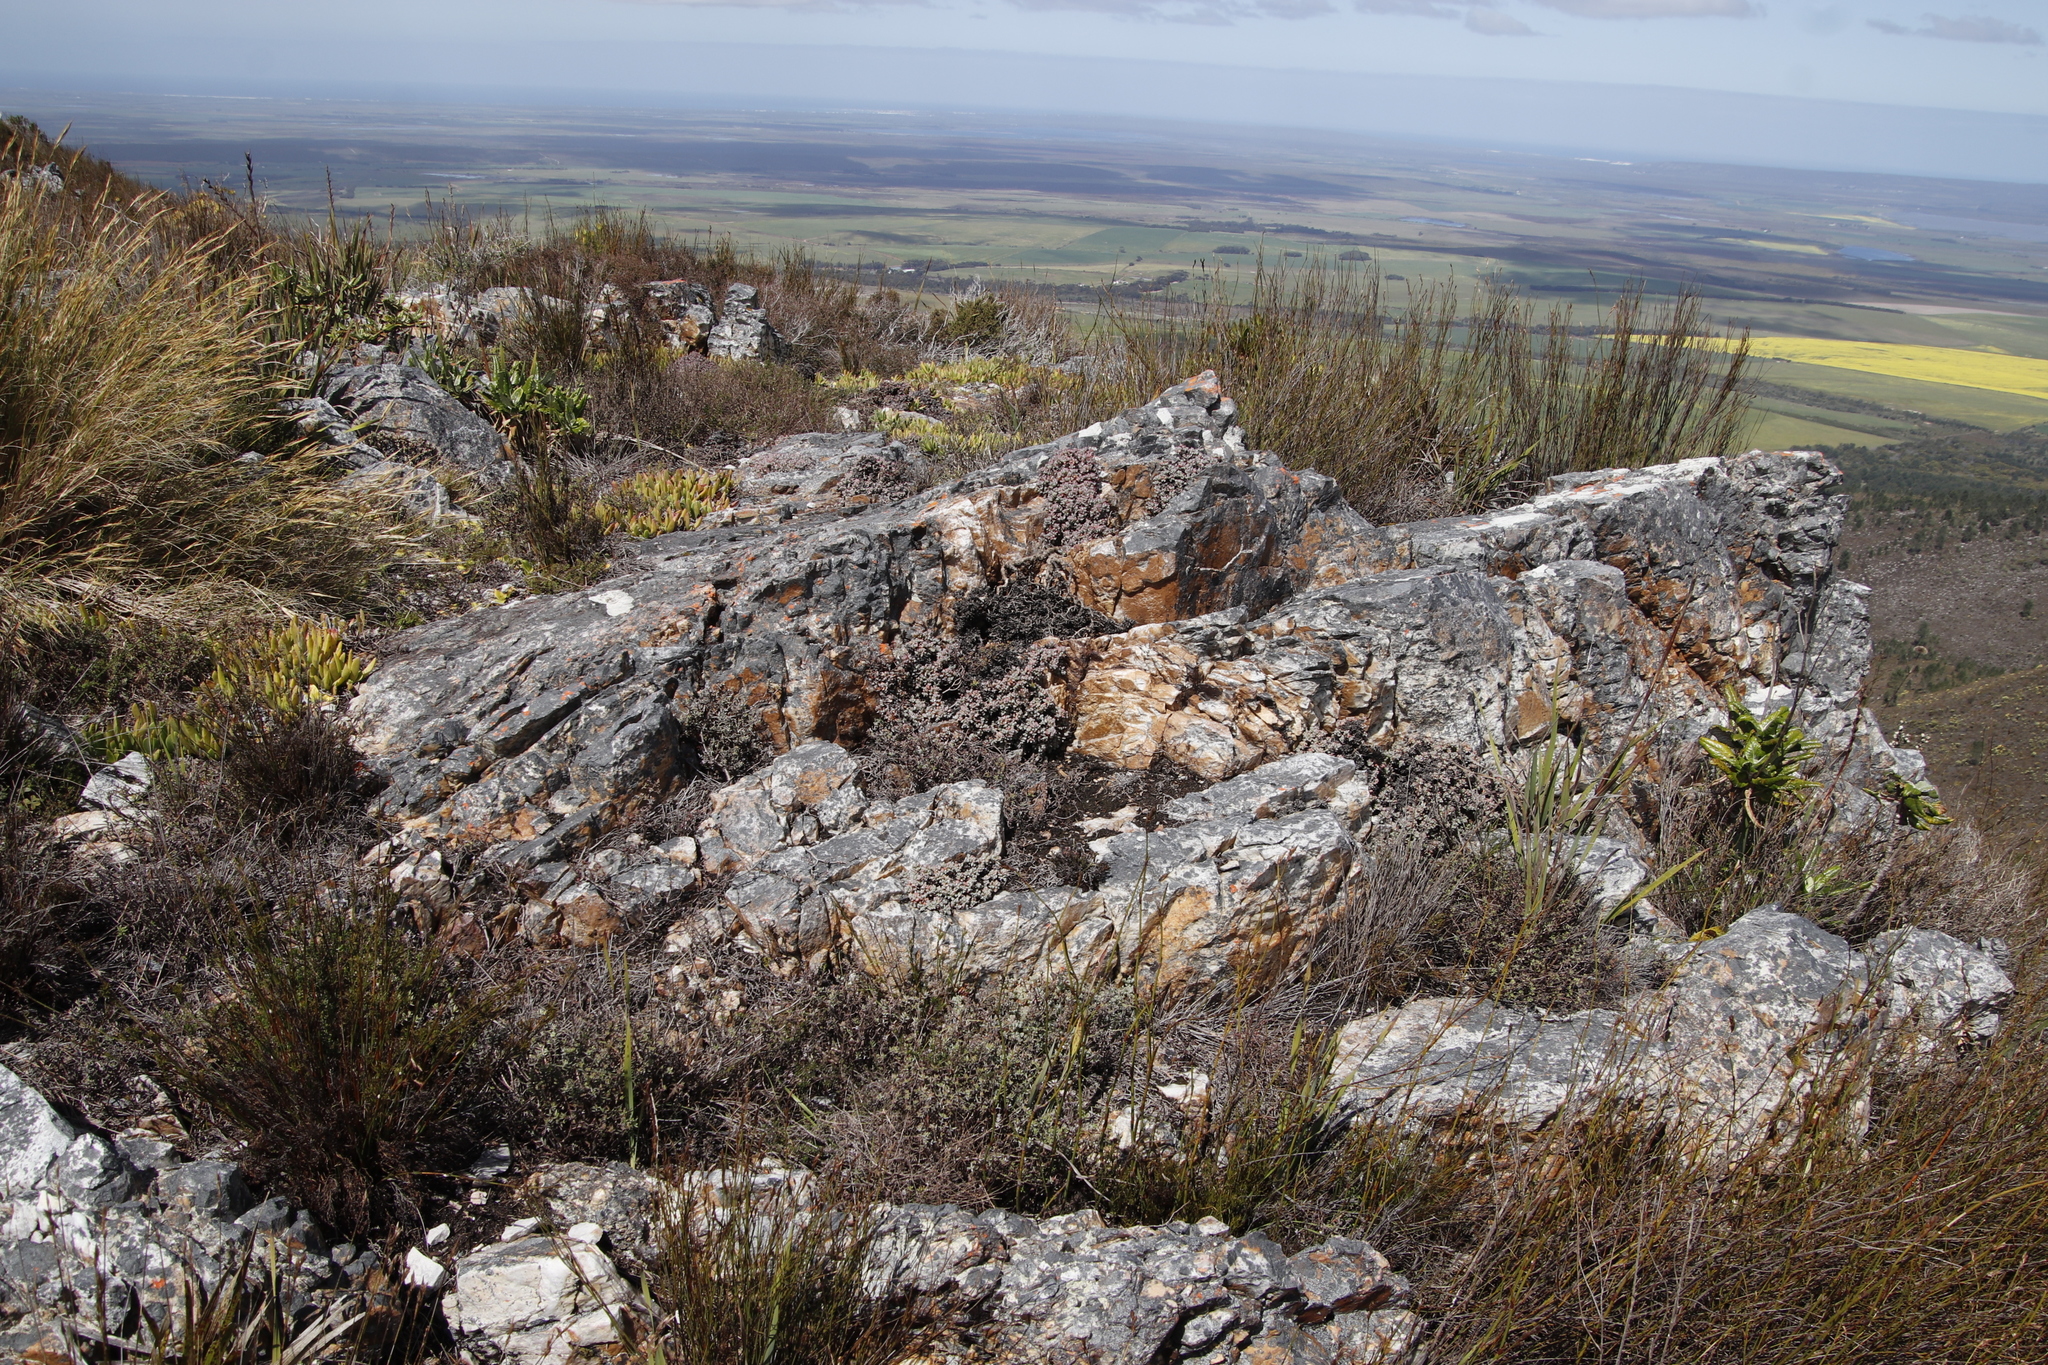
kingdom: Plantae
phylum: Tracheophyta
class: Magnoliopsida
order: Caryophyllales
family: Aizoaceae
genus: Oscularia
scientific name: Oscularia deltoides
